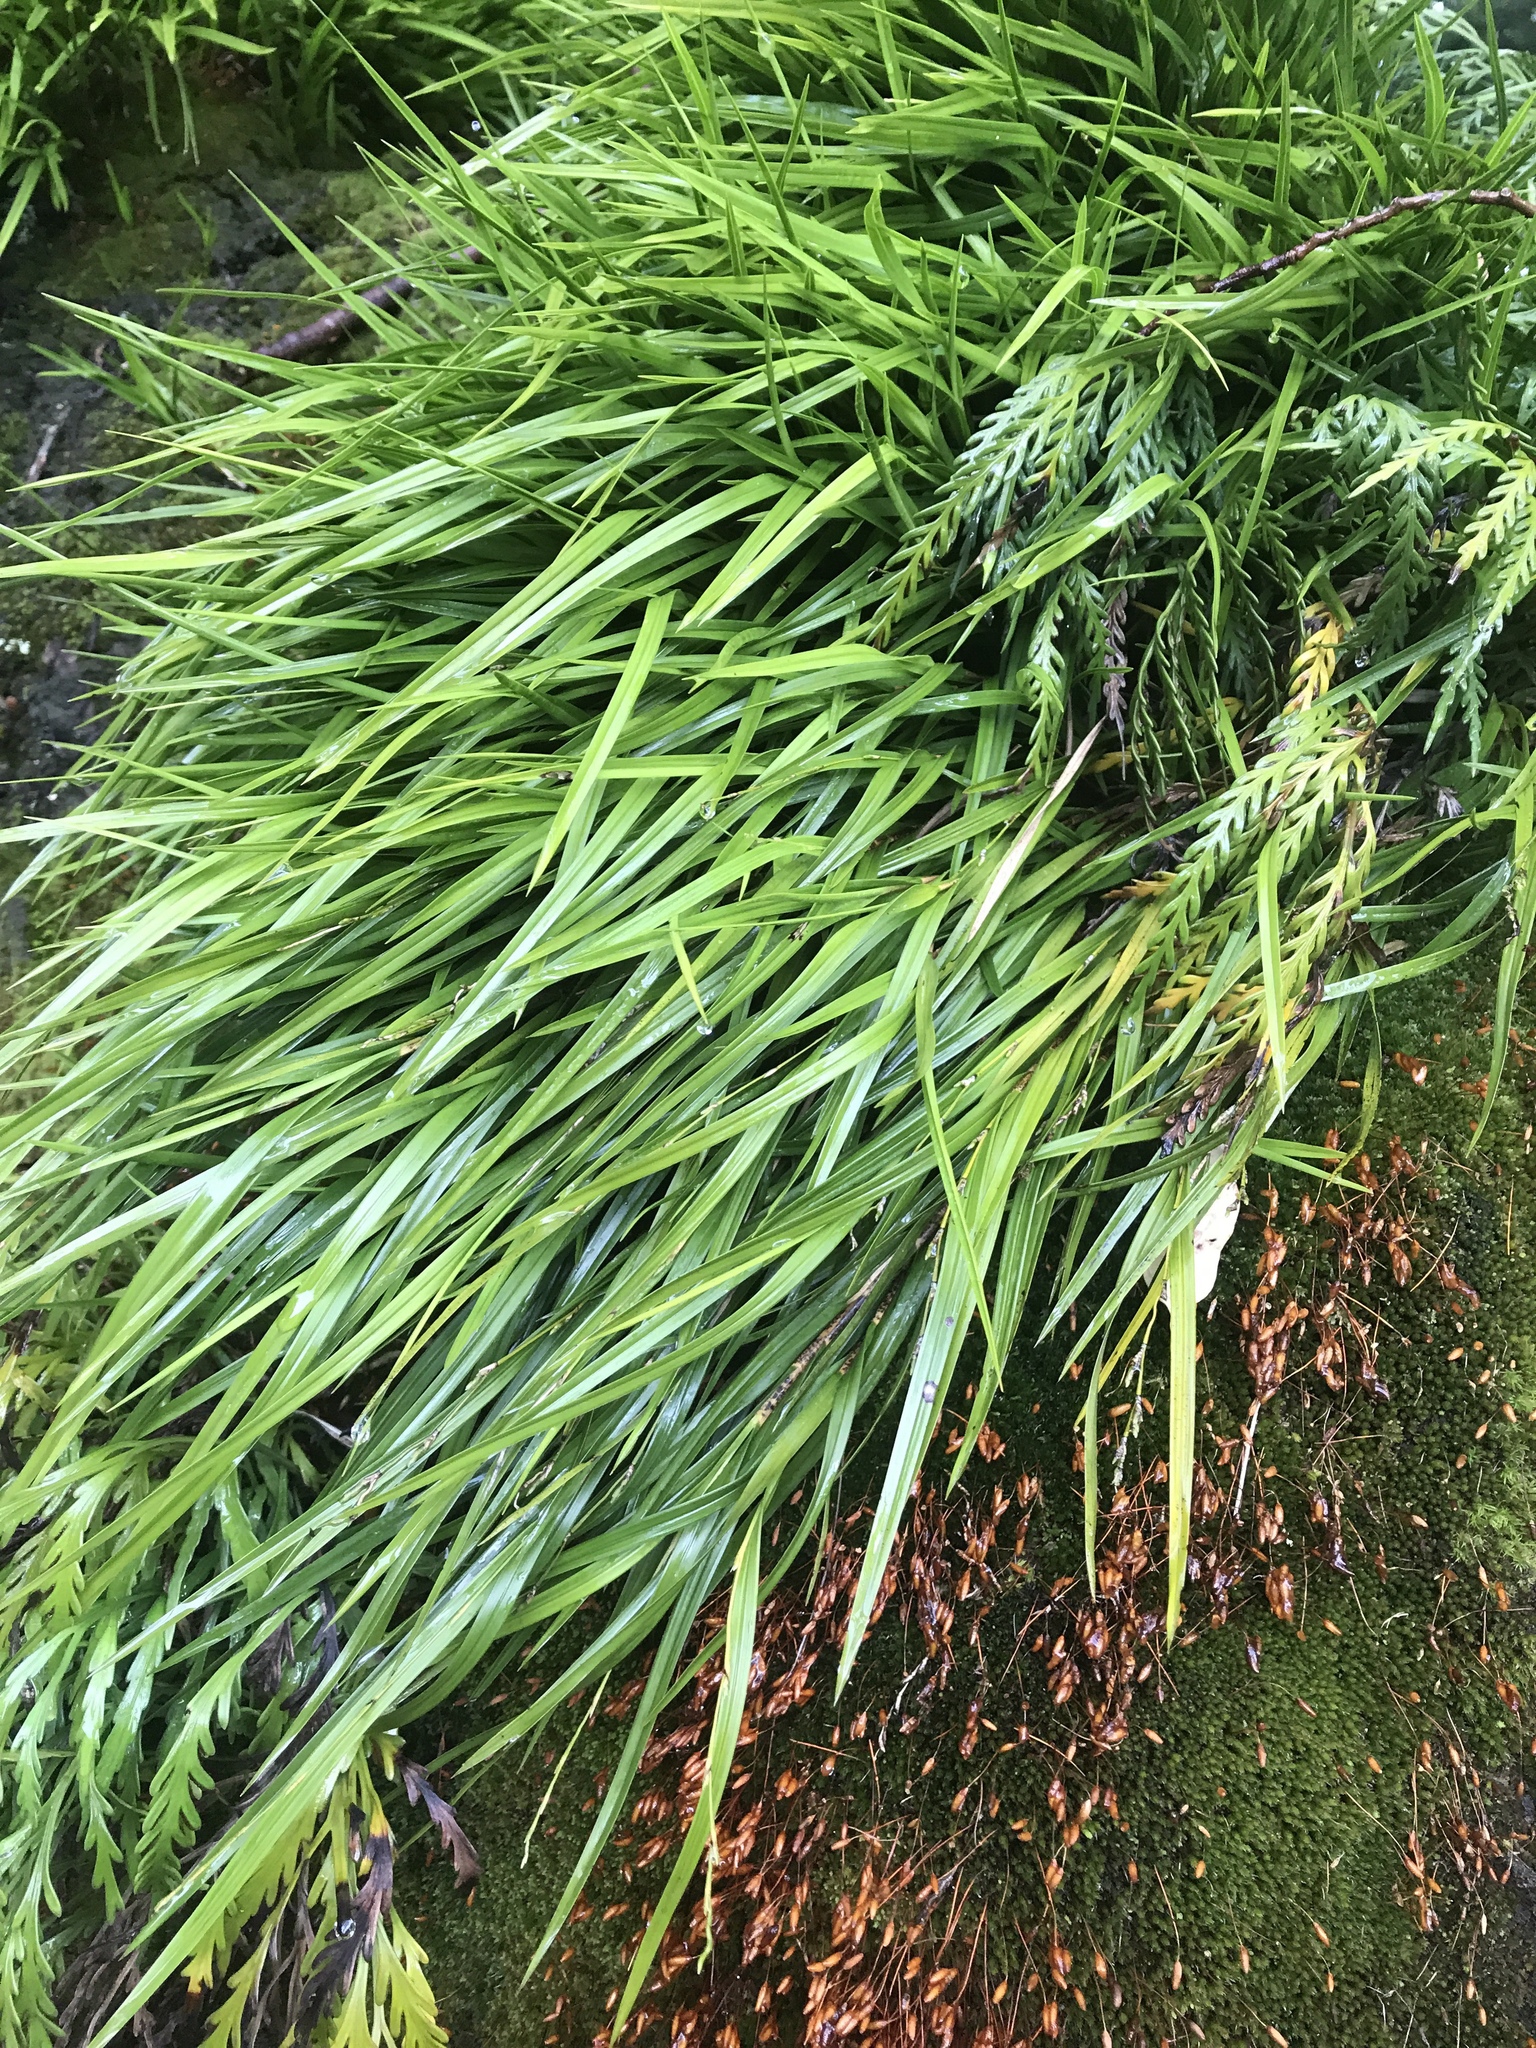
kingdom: Plantae
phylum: Tracheophyta
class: Liliopsida
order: Asparagales
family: Orchidaceae
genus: Earina
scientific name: Earina mucronata
